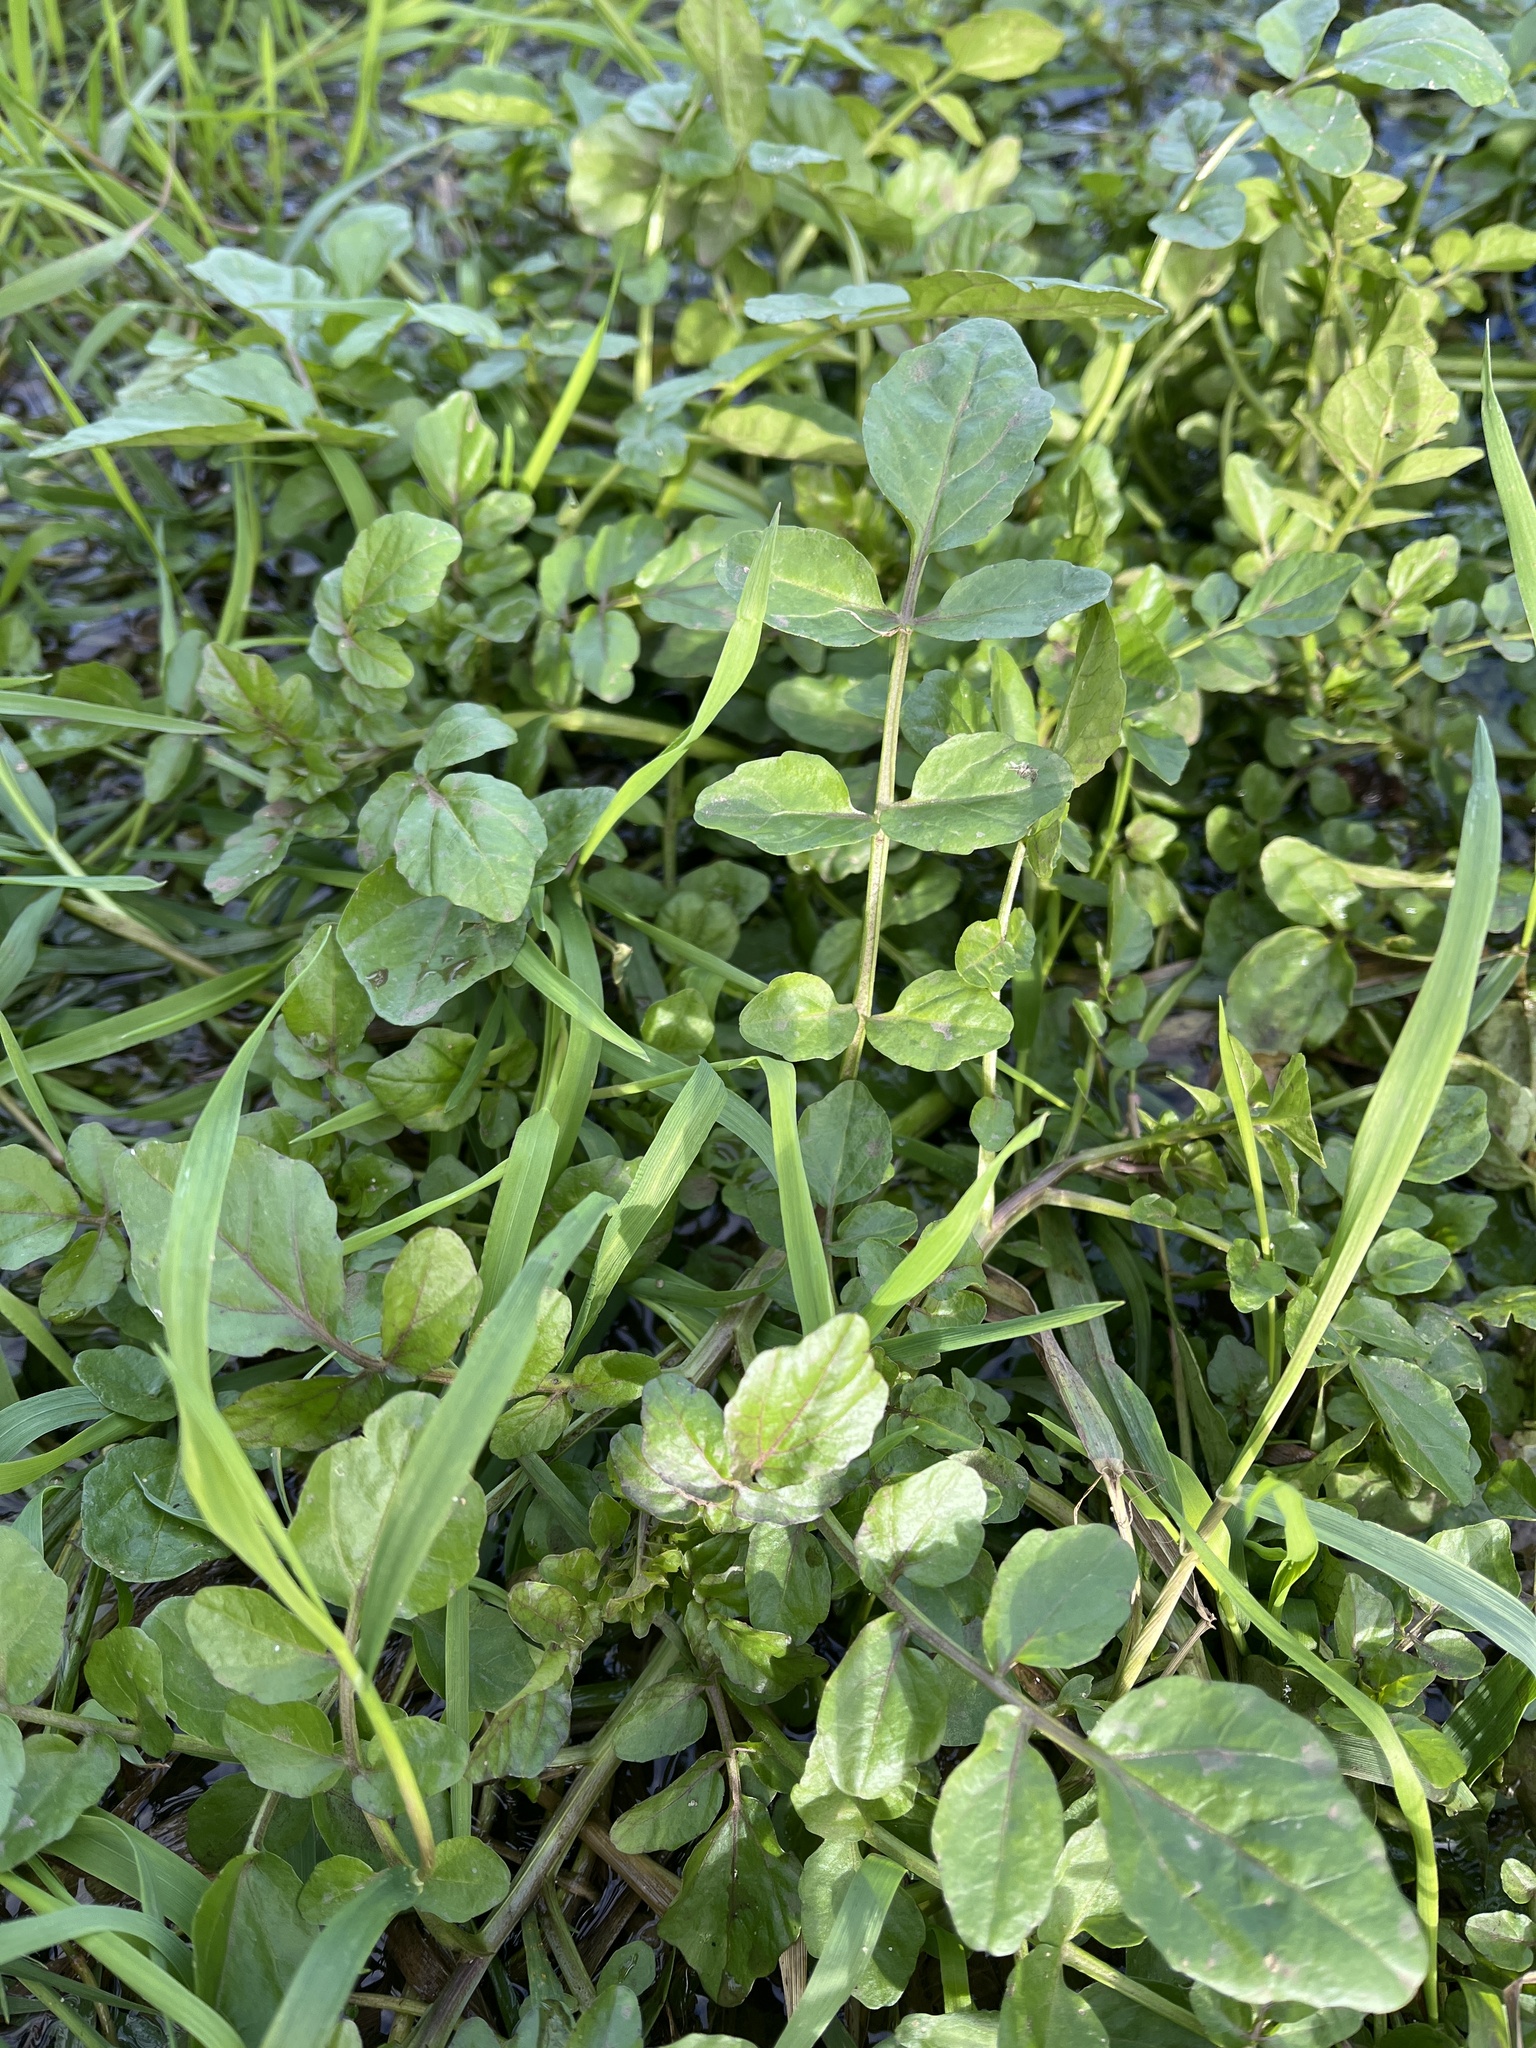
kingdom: Plantae
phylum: Tracheophyta
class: Magnoliopsida
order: Brassicales
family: Brassicaceae
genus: Nasturtium
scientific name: Nasturtium officinale
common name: Watercress
